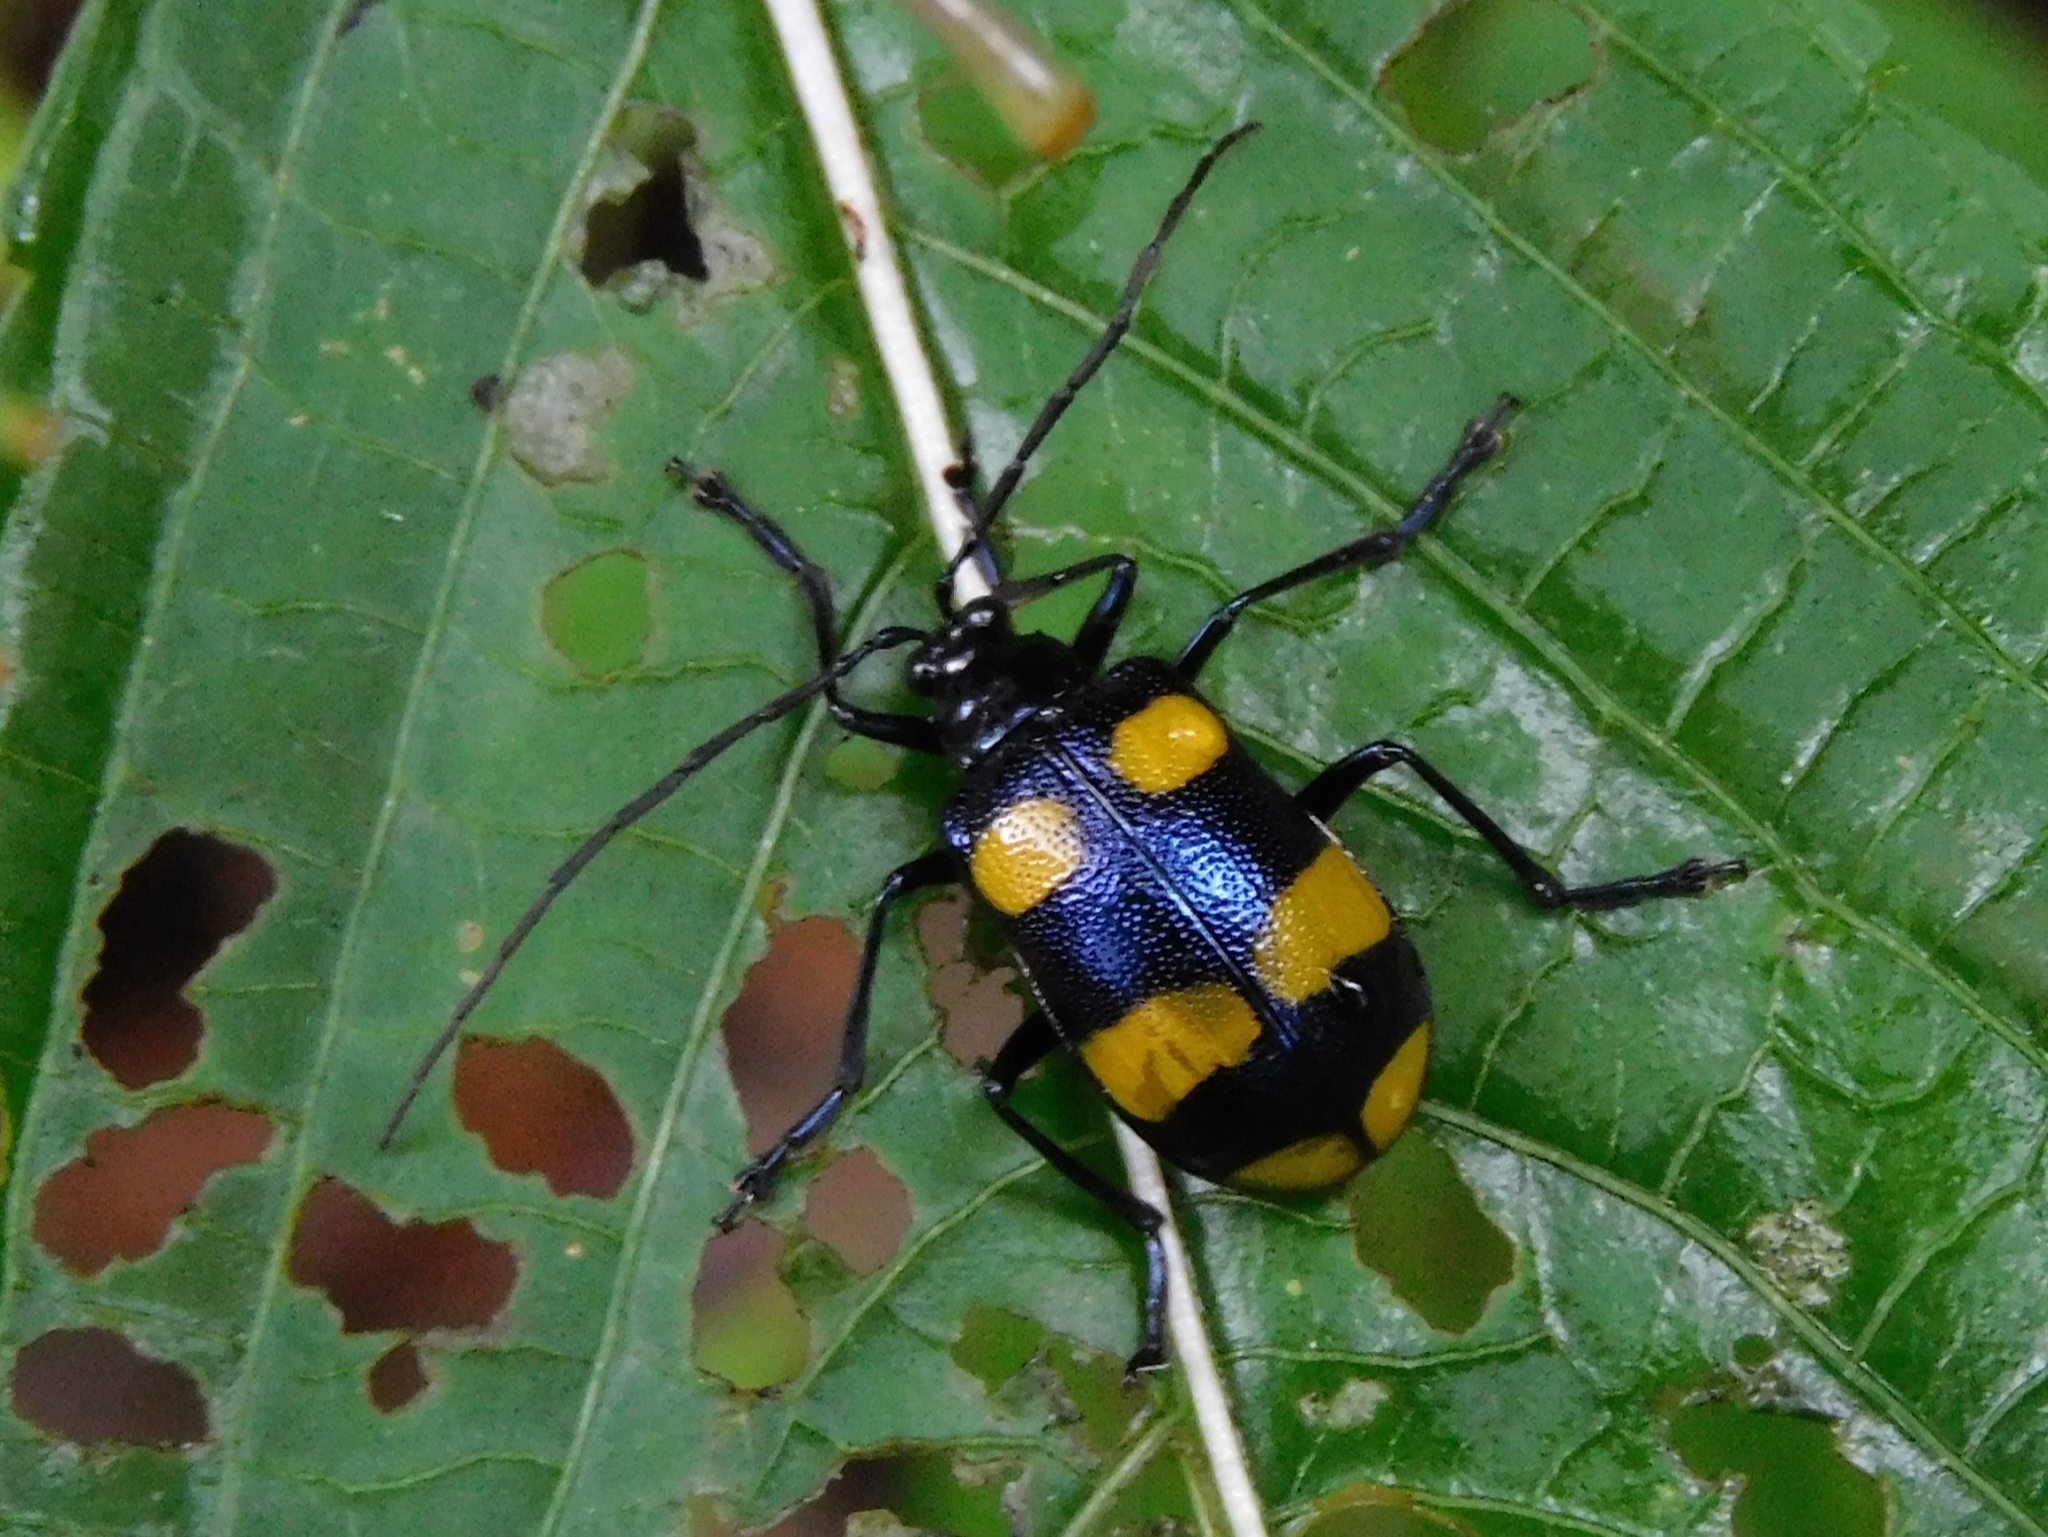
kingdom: Animalia
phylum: Arthropoda
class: Insecta
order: Coleoptera
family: Chrysomelidae
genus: Meristata
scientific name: Meristata
